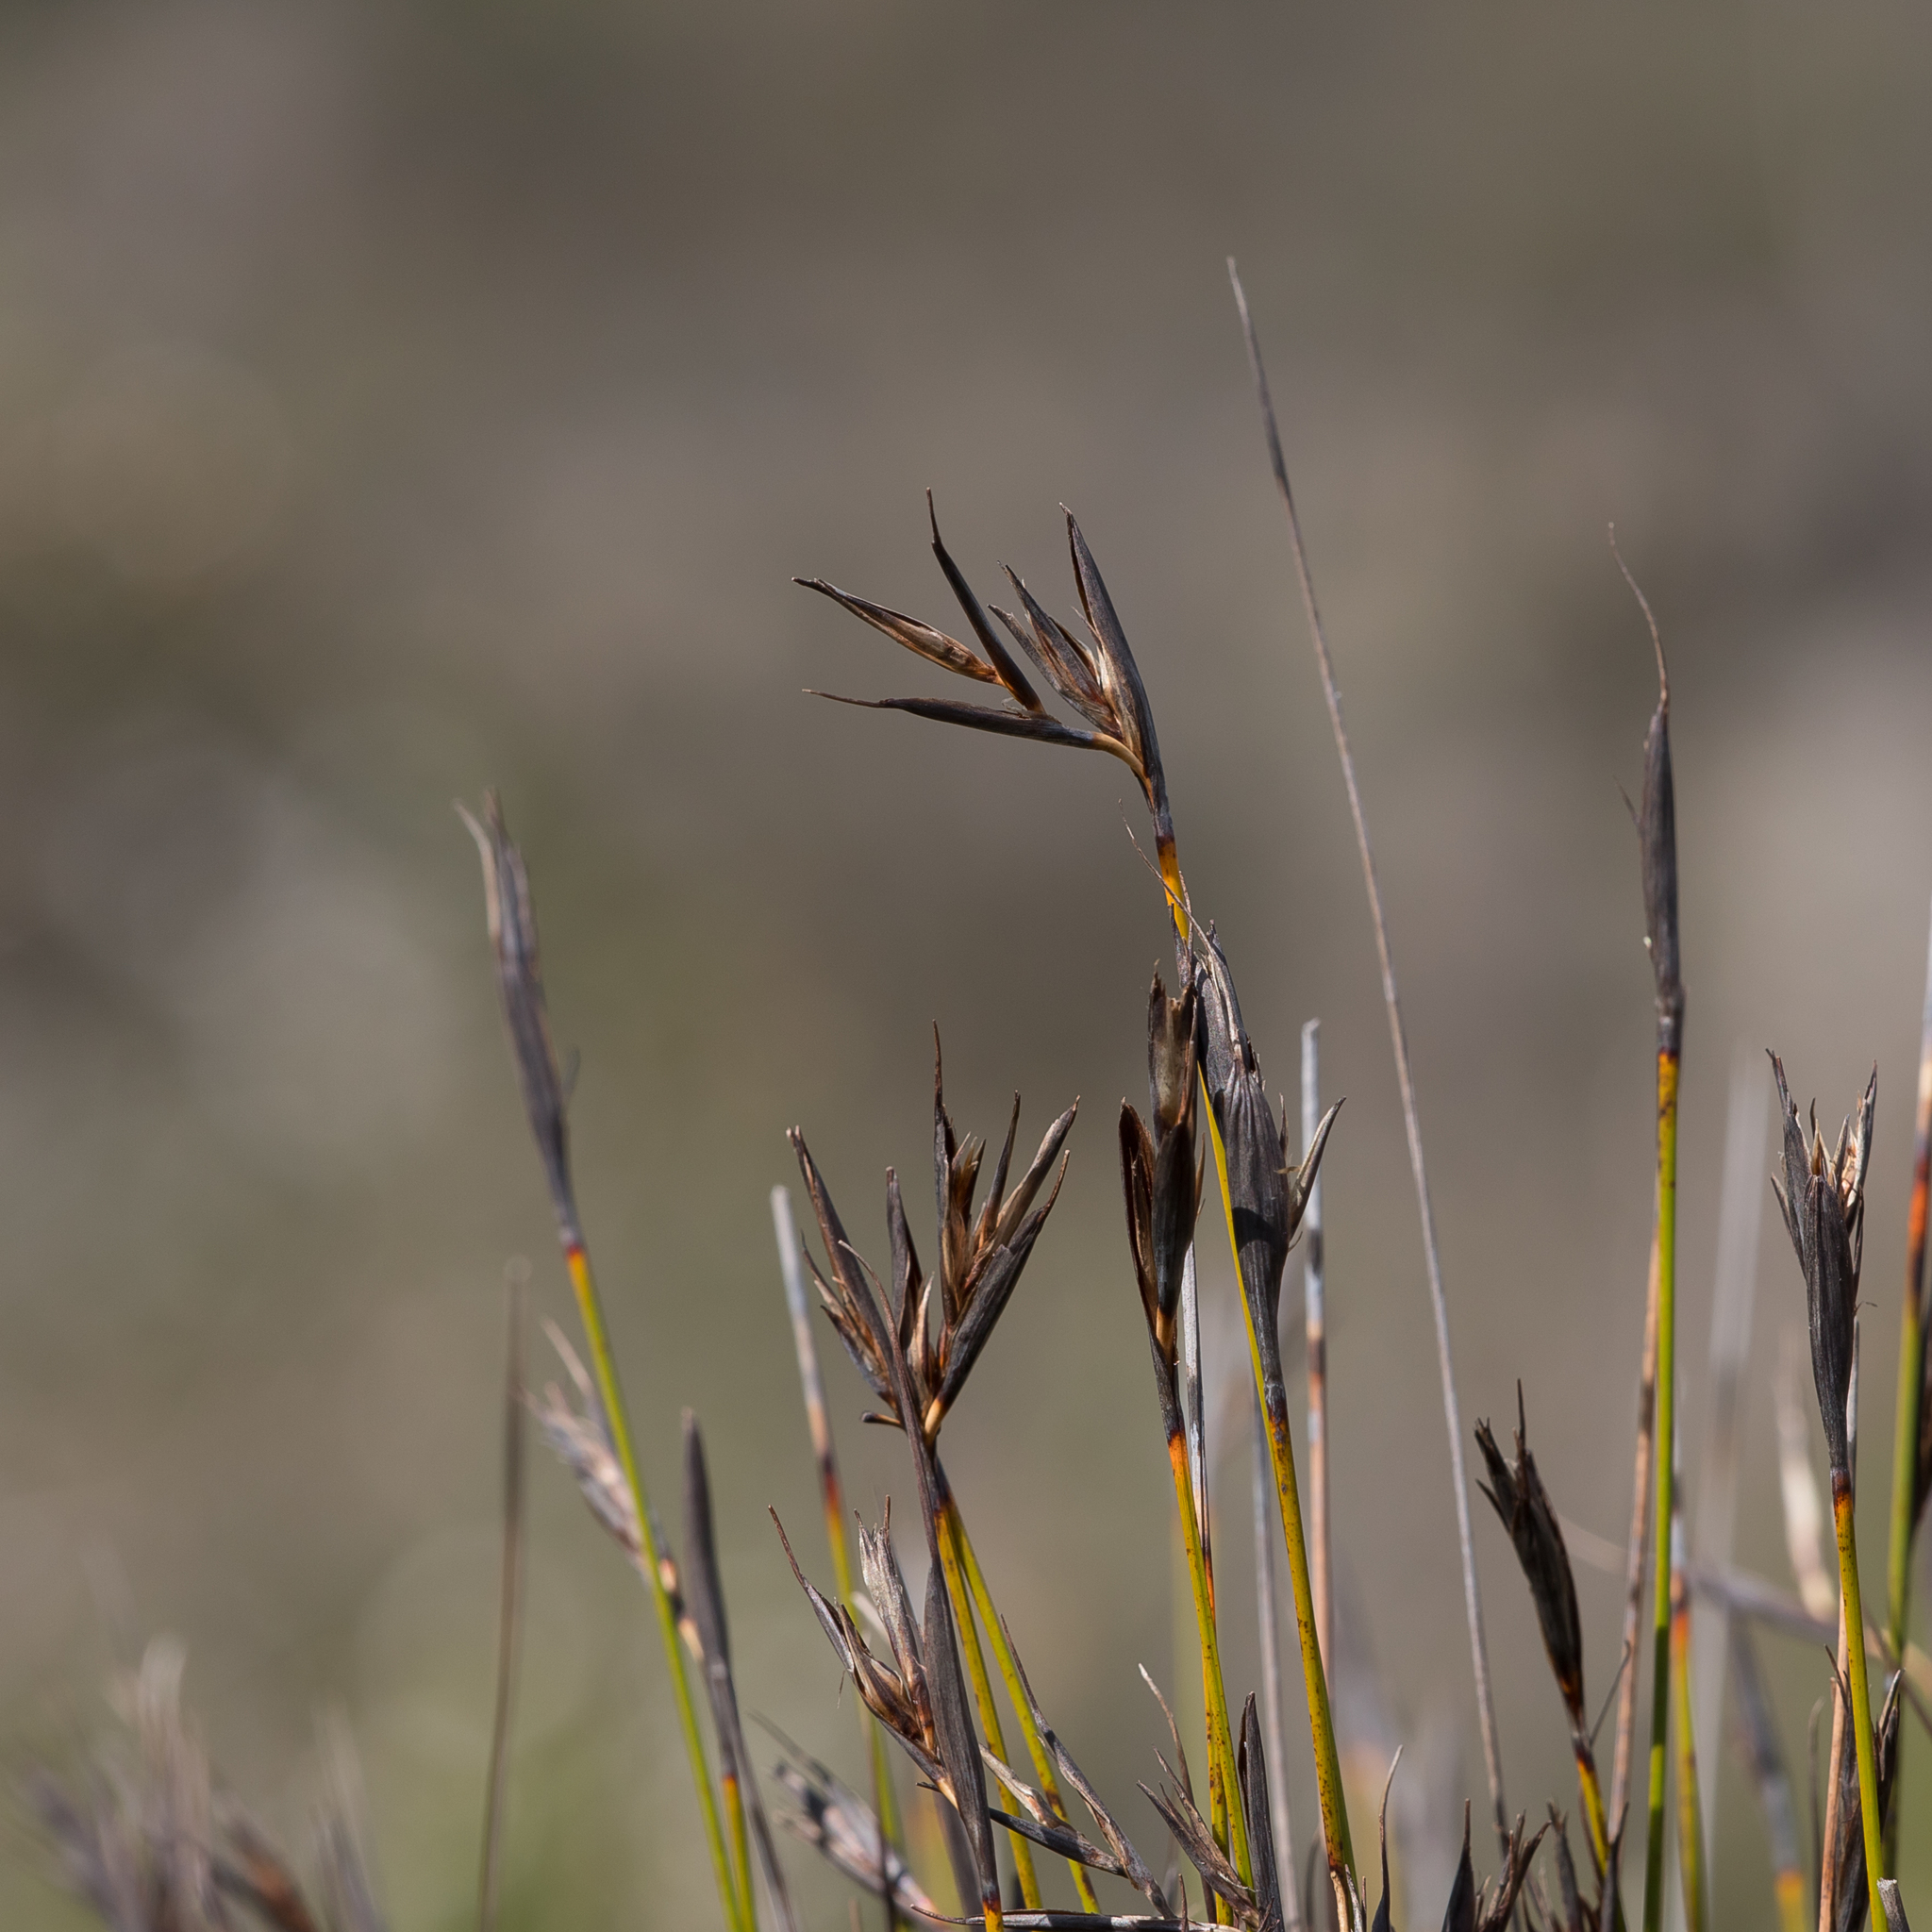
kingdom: Plantae
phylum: Tracheophyta
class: Liliopsida
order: Poales
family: Cyperaceae
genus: Lepidosperma
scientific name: Lepidosperma carphoides
